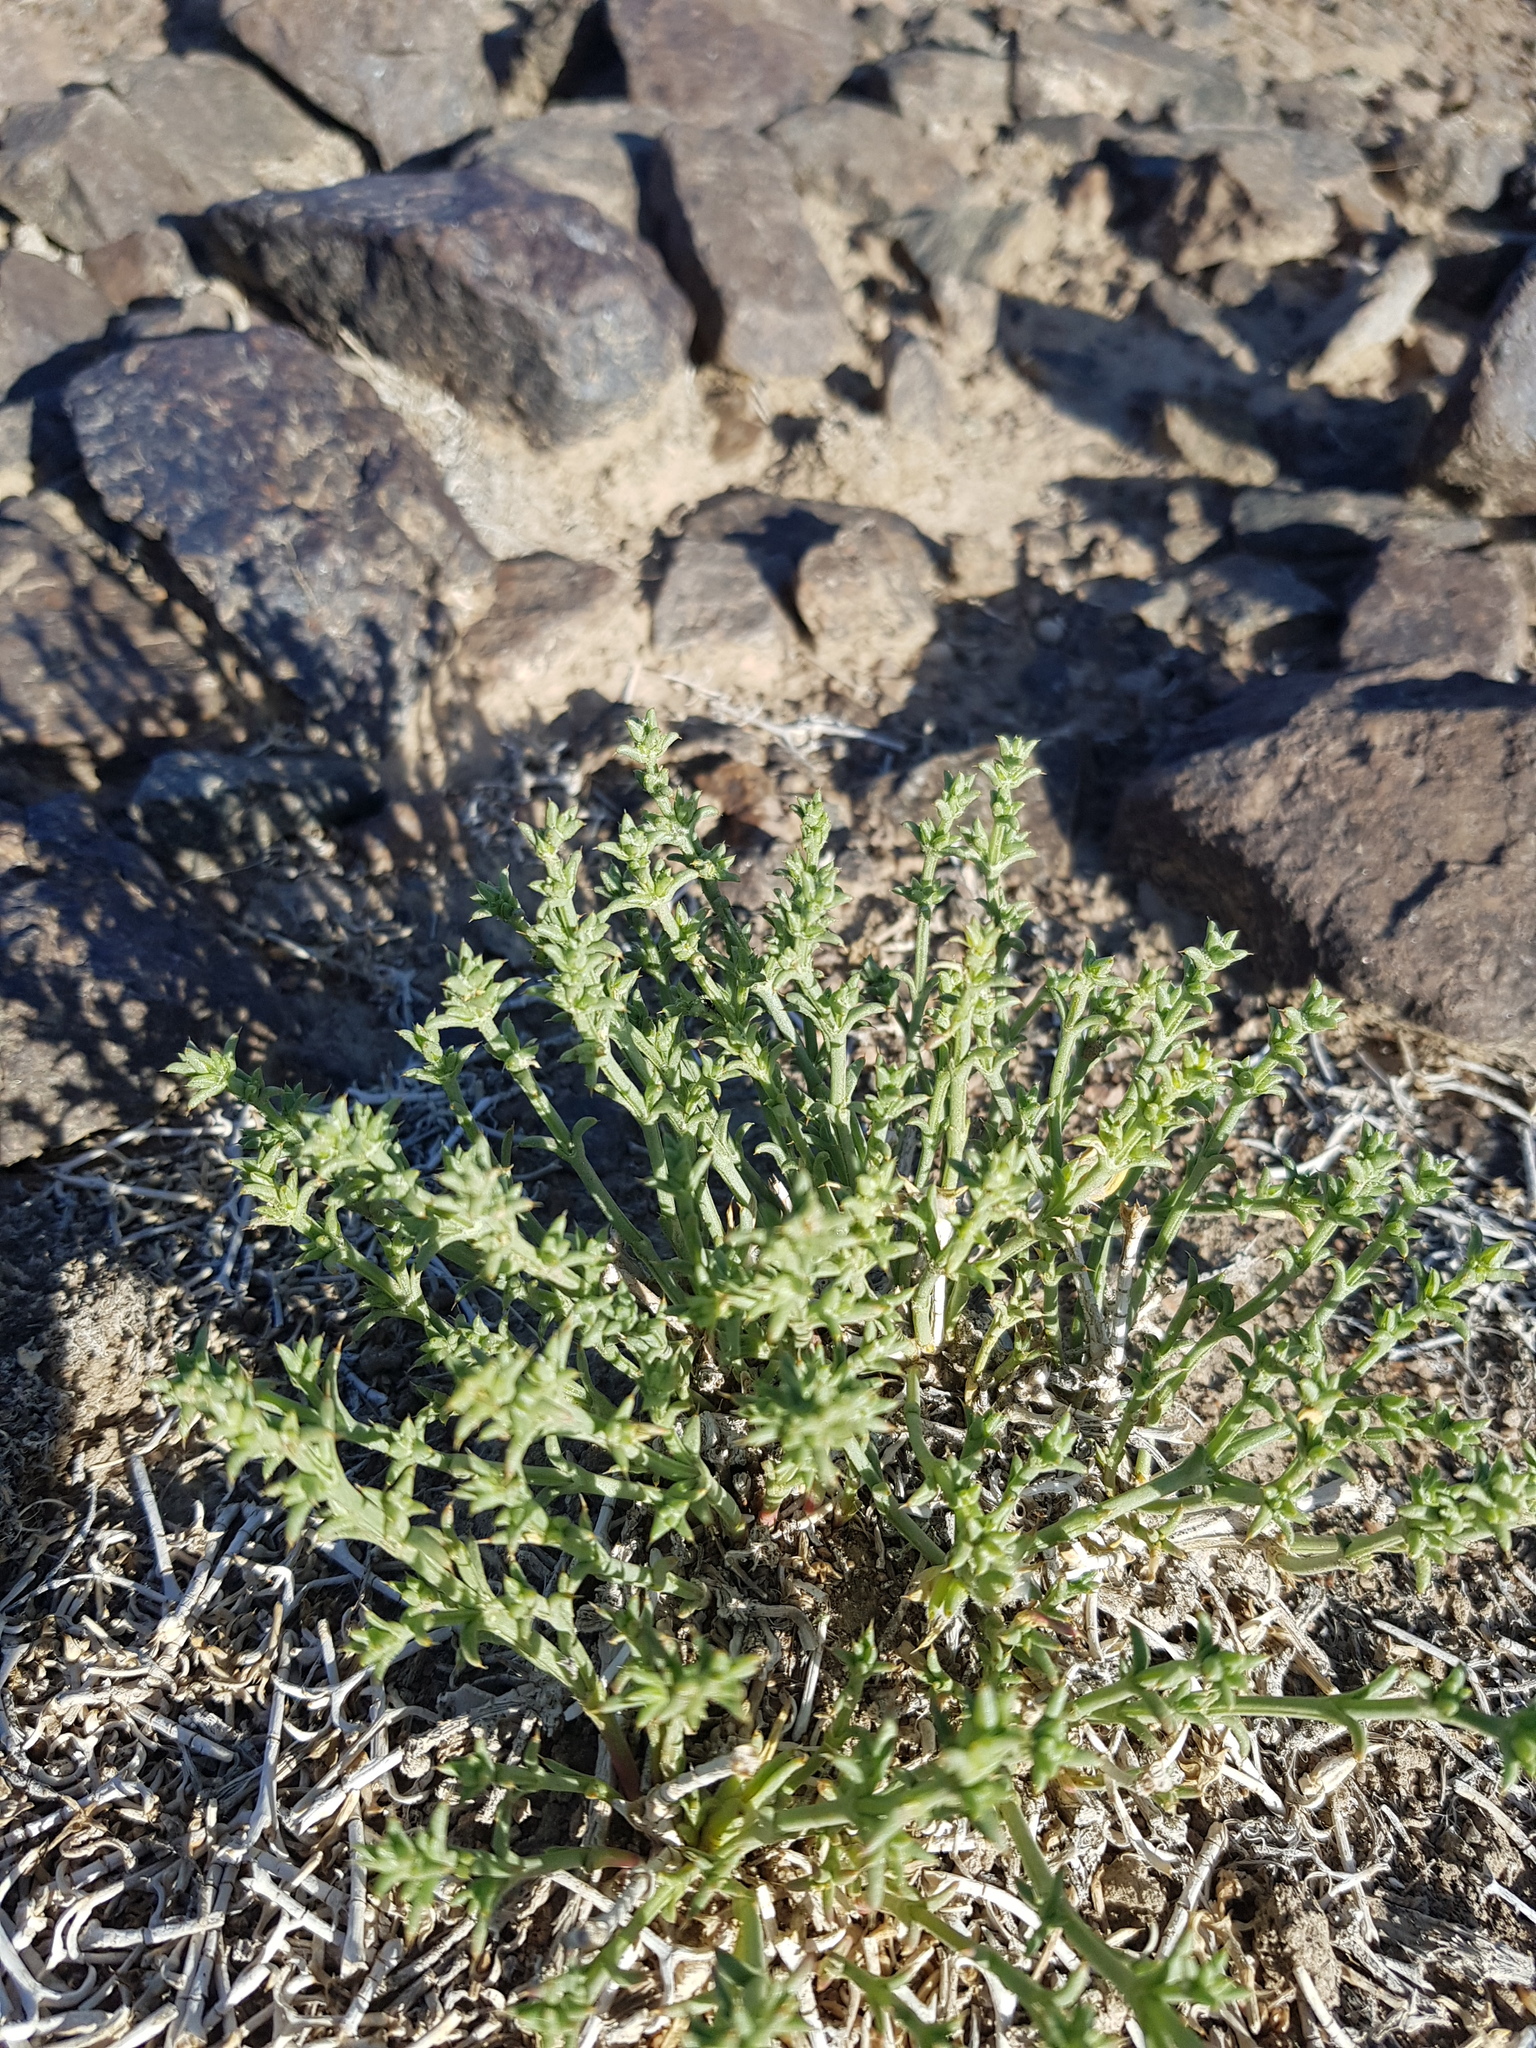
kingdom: Plantae
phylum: Tracheophyta
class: Magnoliopsida
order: Caryophyllales
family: Amaranthaceae
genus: Anabasis
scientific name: Anabasis brevifolia
